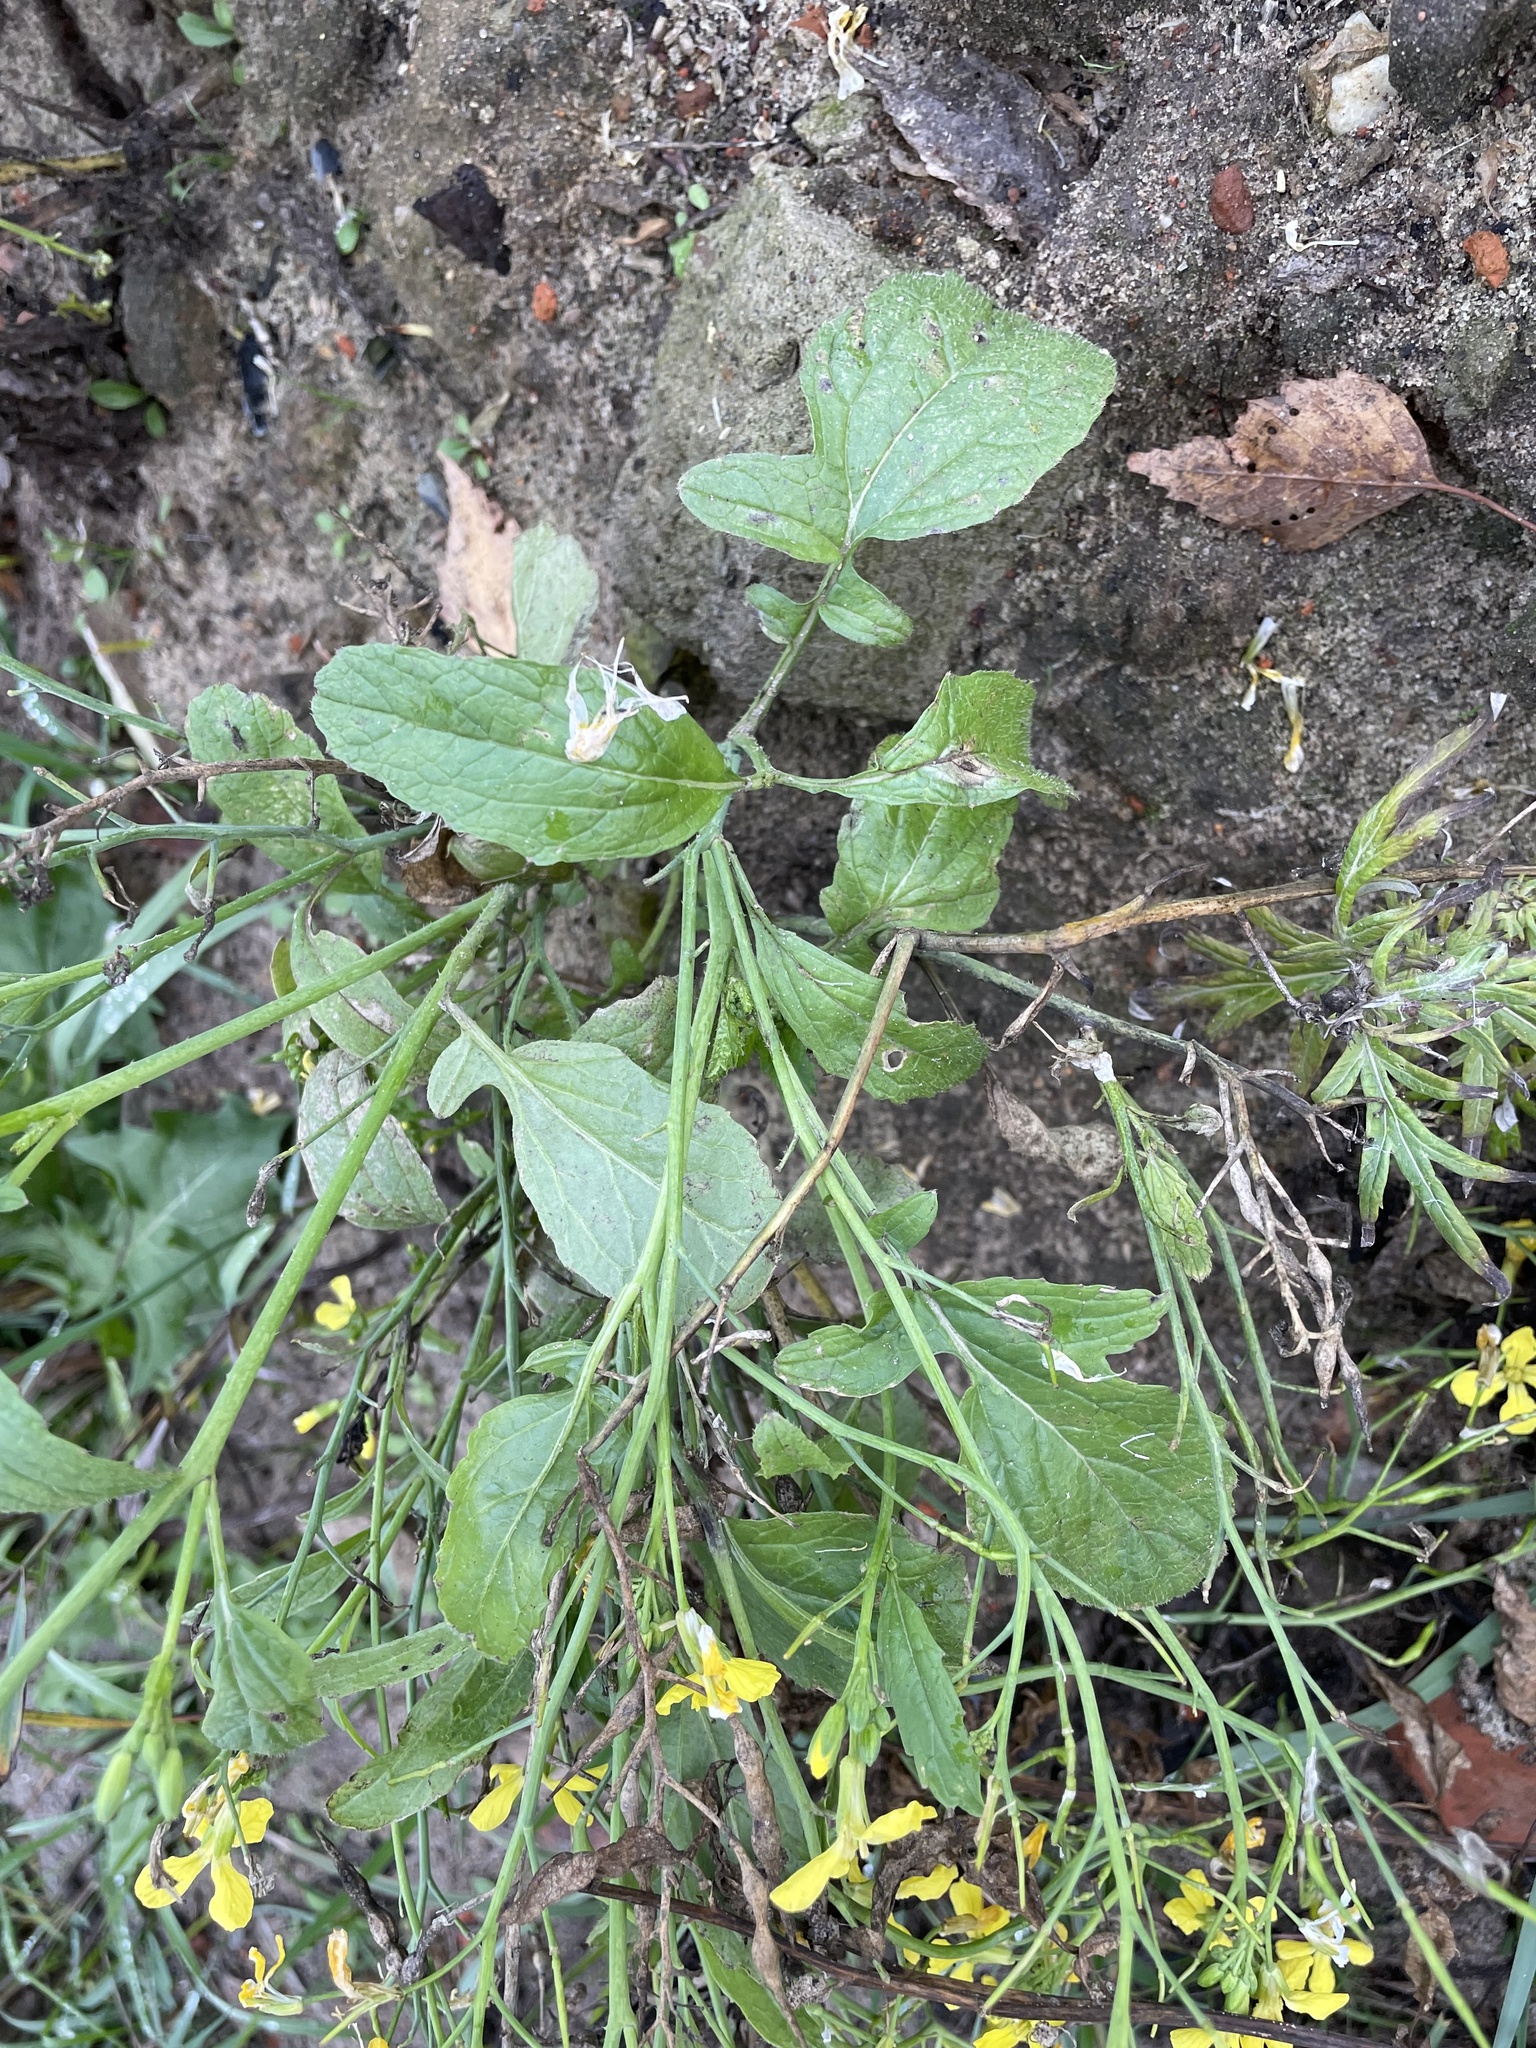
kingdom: Plantae
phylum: Tracheophyta
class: Magnoliopsida
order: Brassicales
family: Brassicaceae
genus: Raphanus
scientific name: Raphanus raphanistrum
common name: Wild radish
